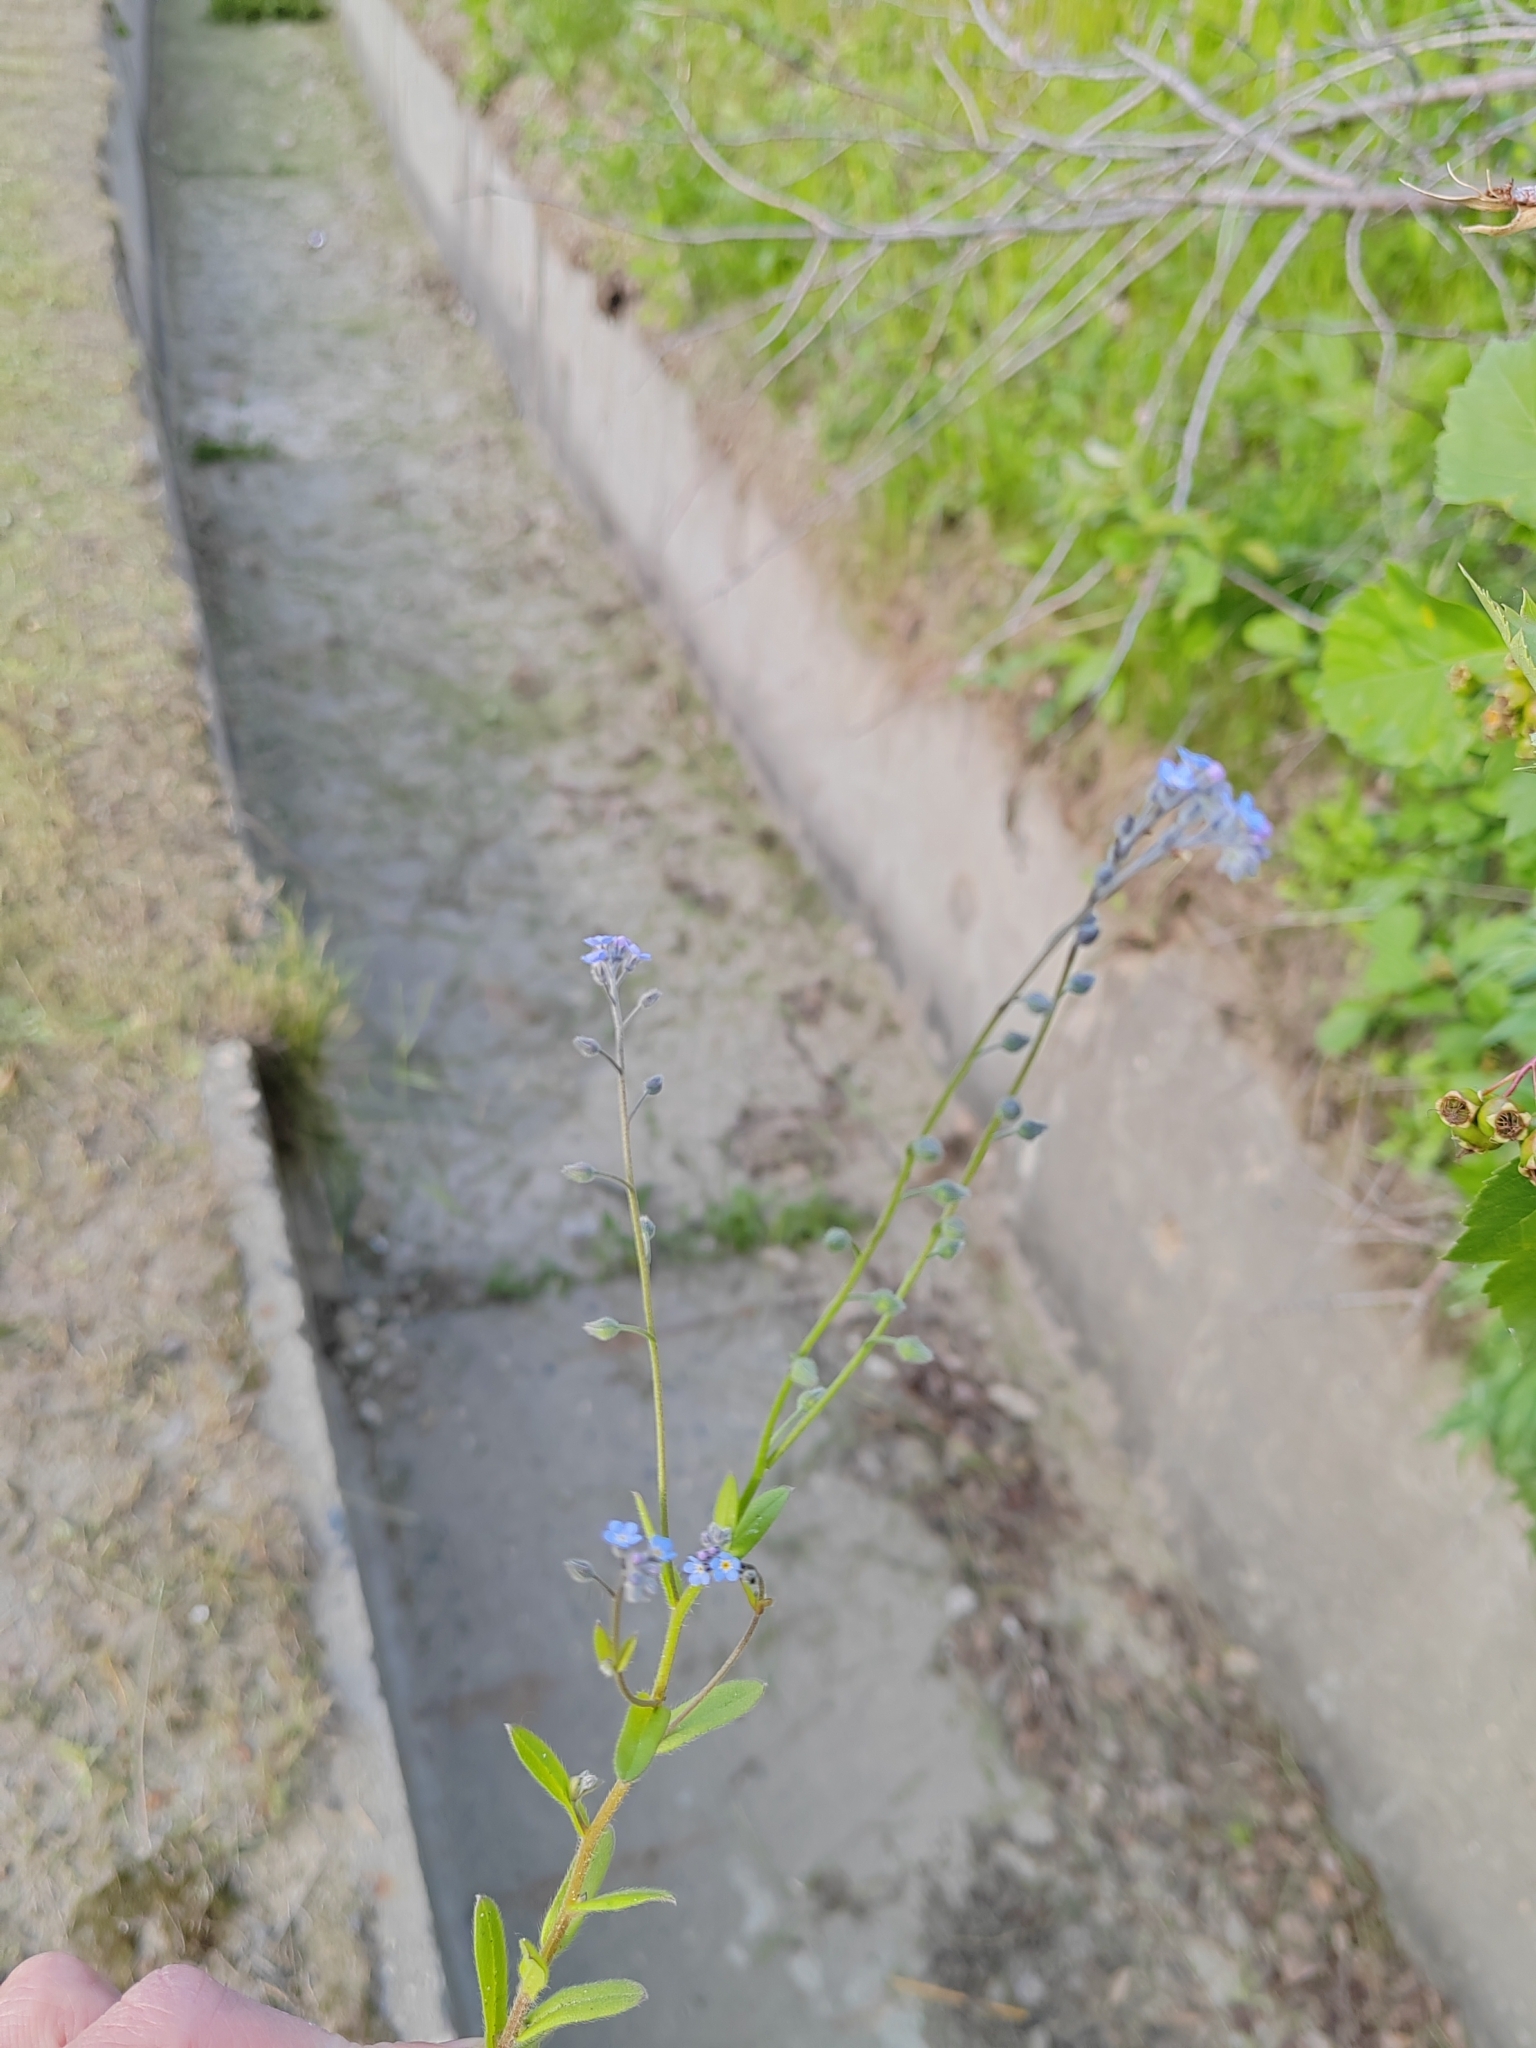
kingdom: Plantae
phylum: Tracheophyta
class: Magnoliopsida
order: Boraginales
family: Boraginaceae
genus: Myosotis
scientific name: Myosotis arvensis
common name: Field forget-me-not
